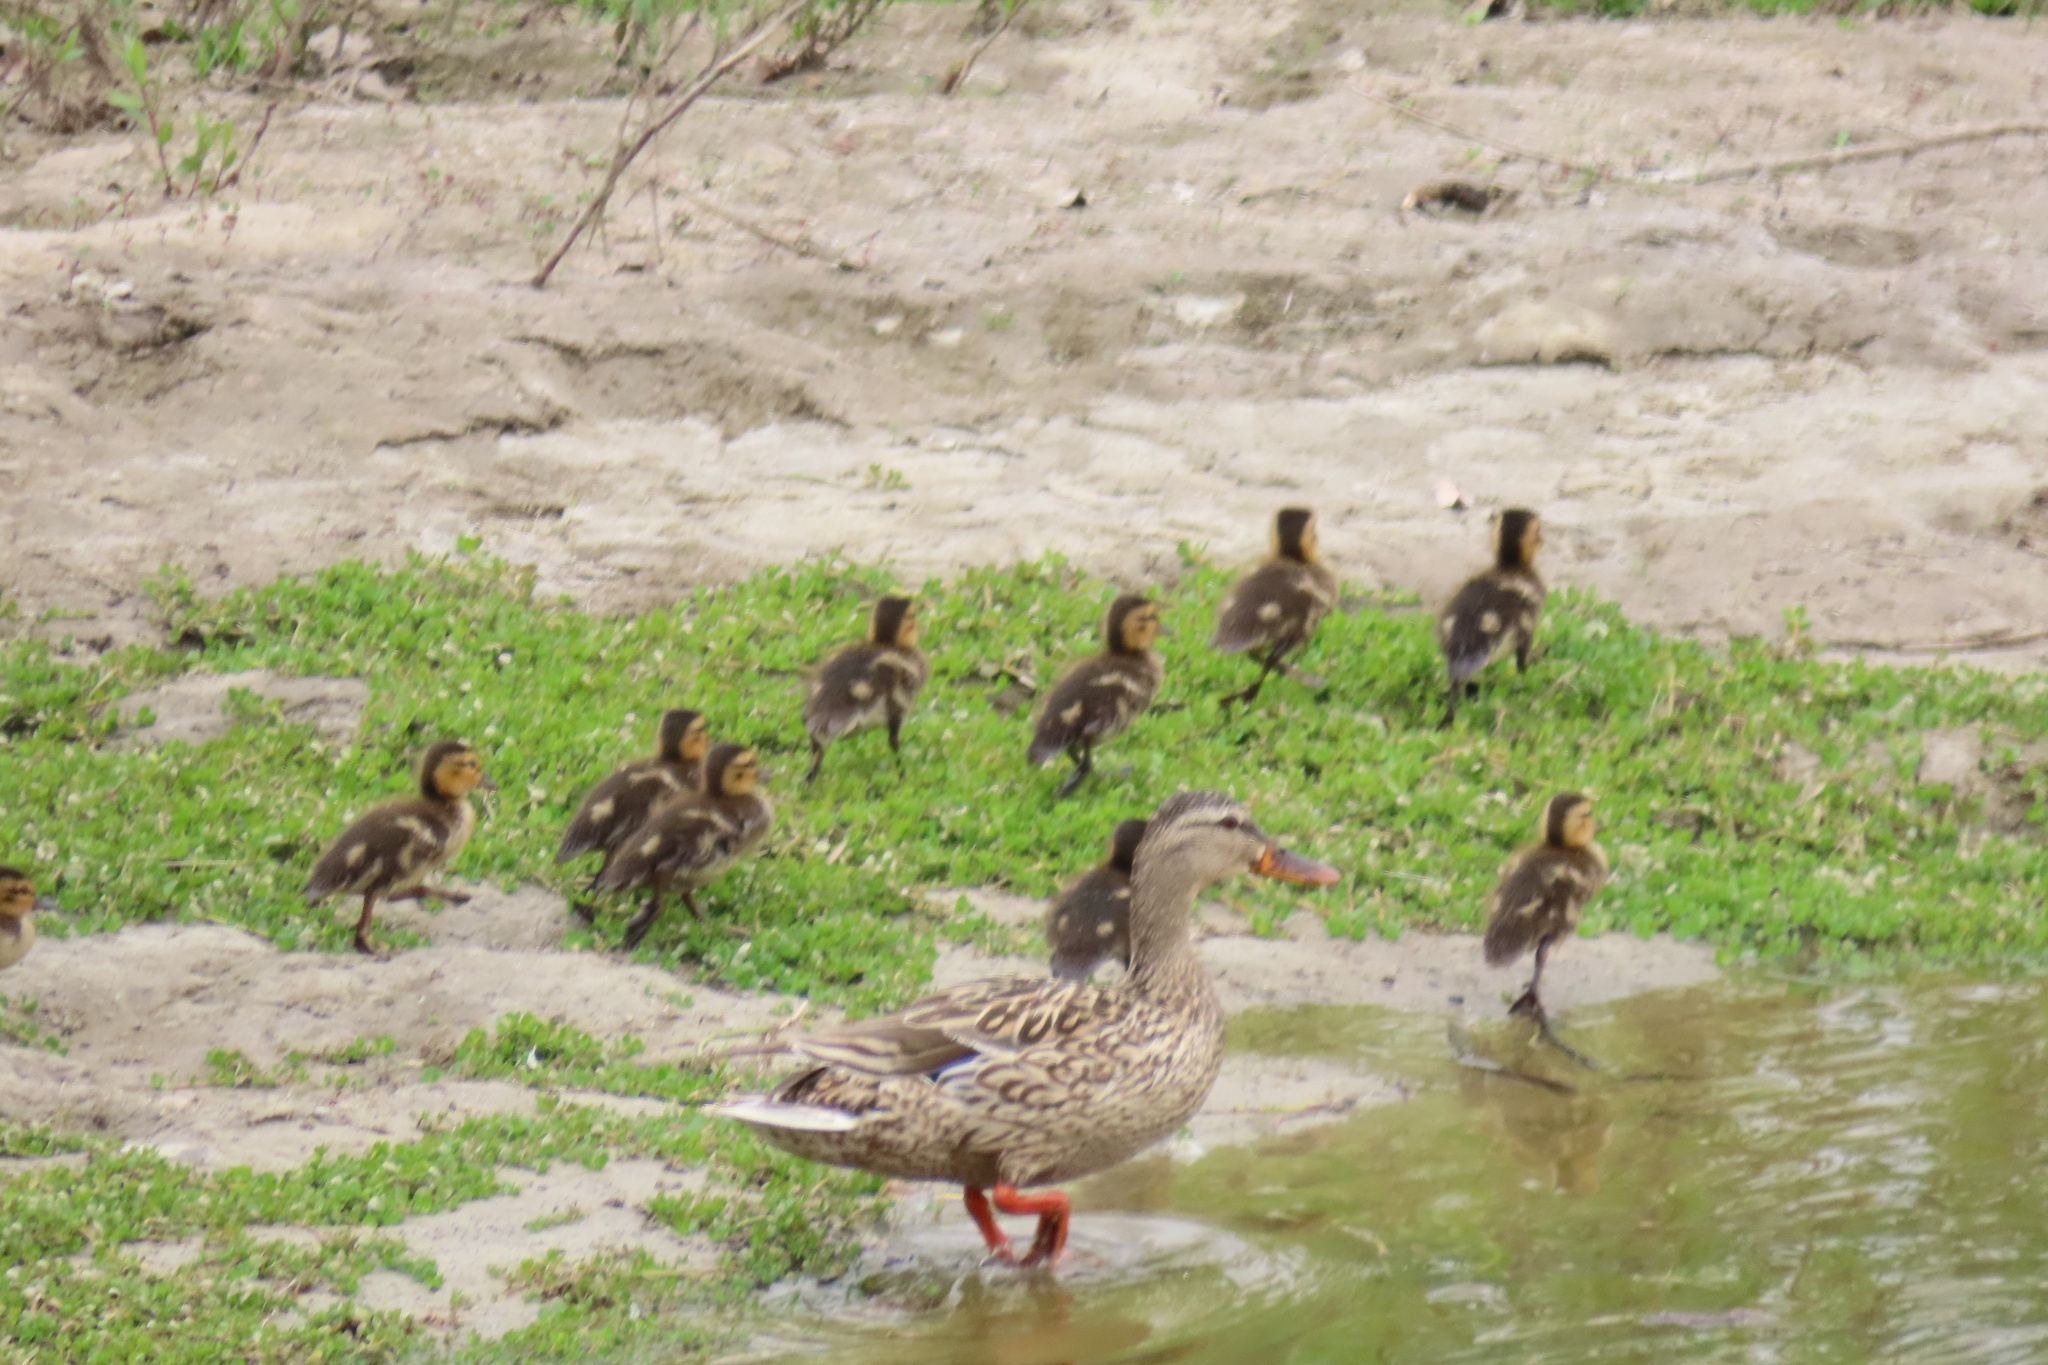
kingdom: Animalia
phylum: Chordata
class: Aves
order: Anseriformes
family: Anatidae
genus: Anas
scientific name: Anas platyrhynchos
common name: Mallard
